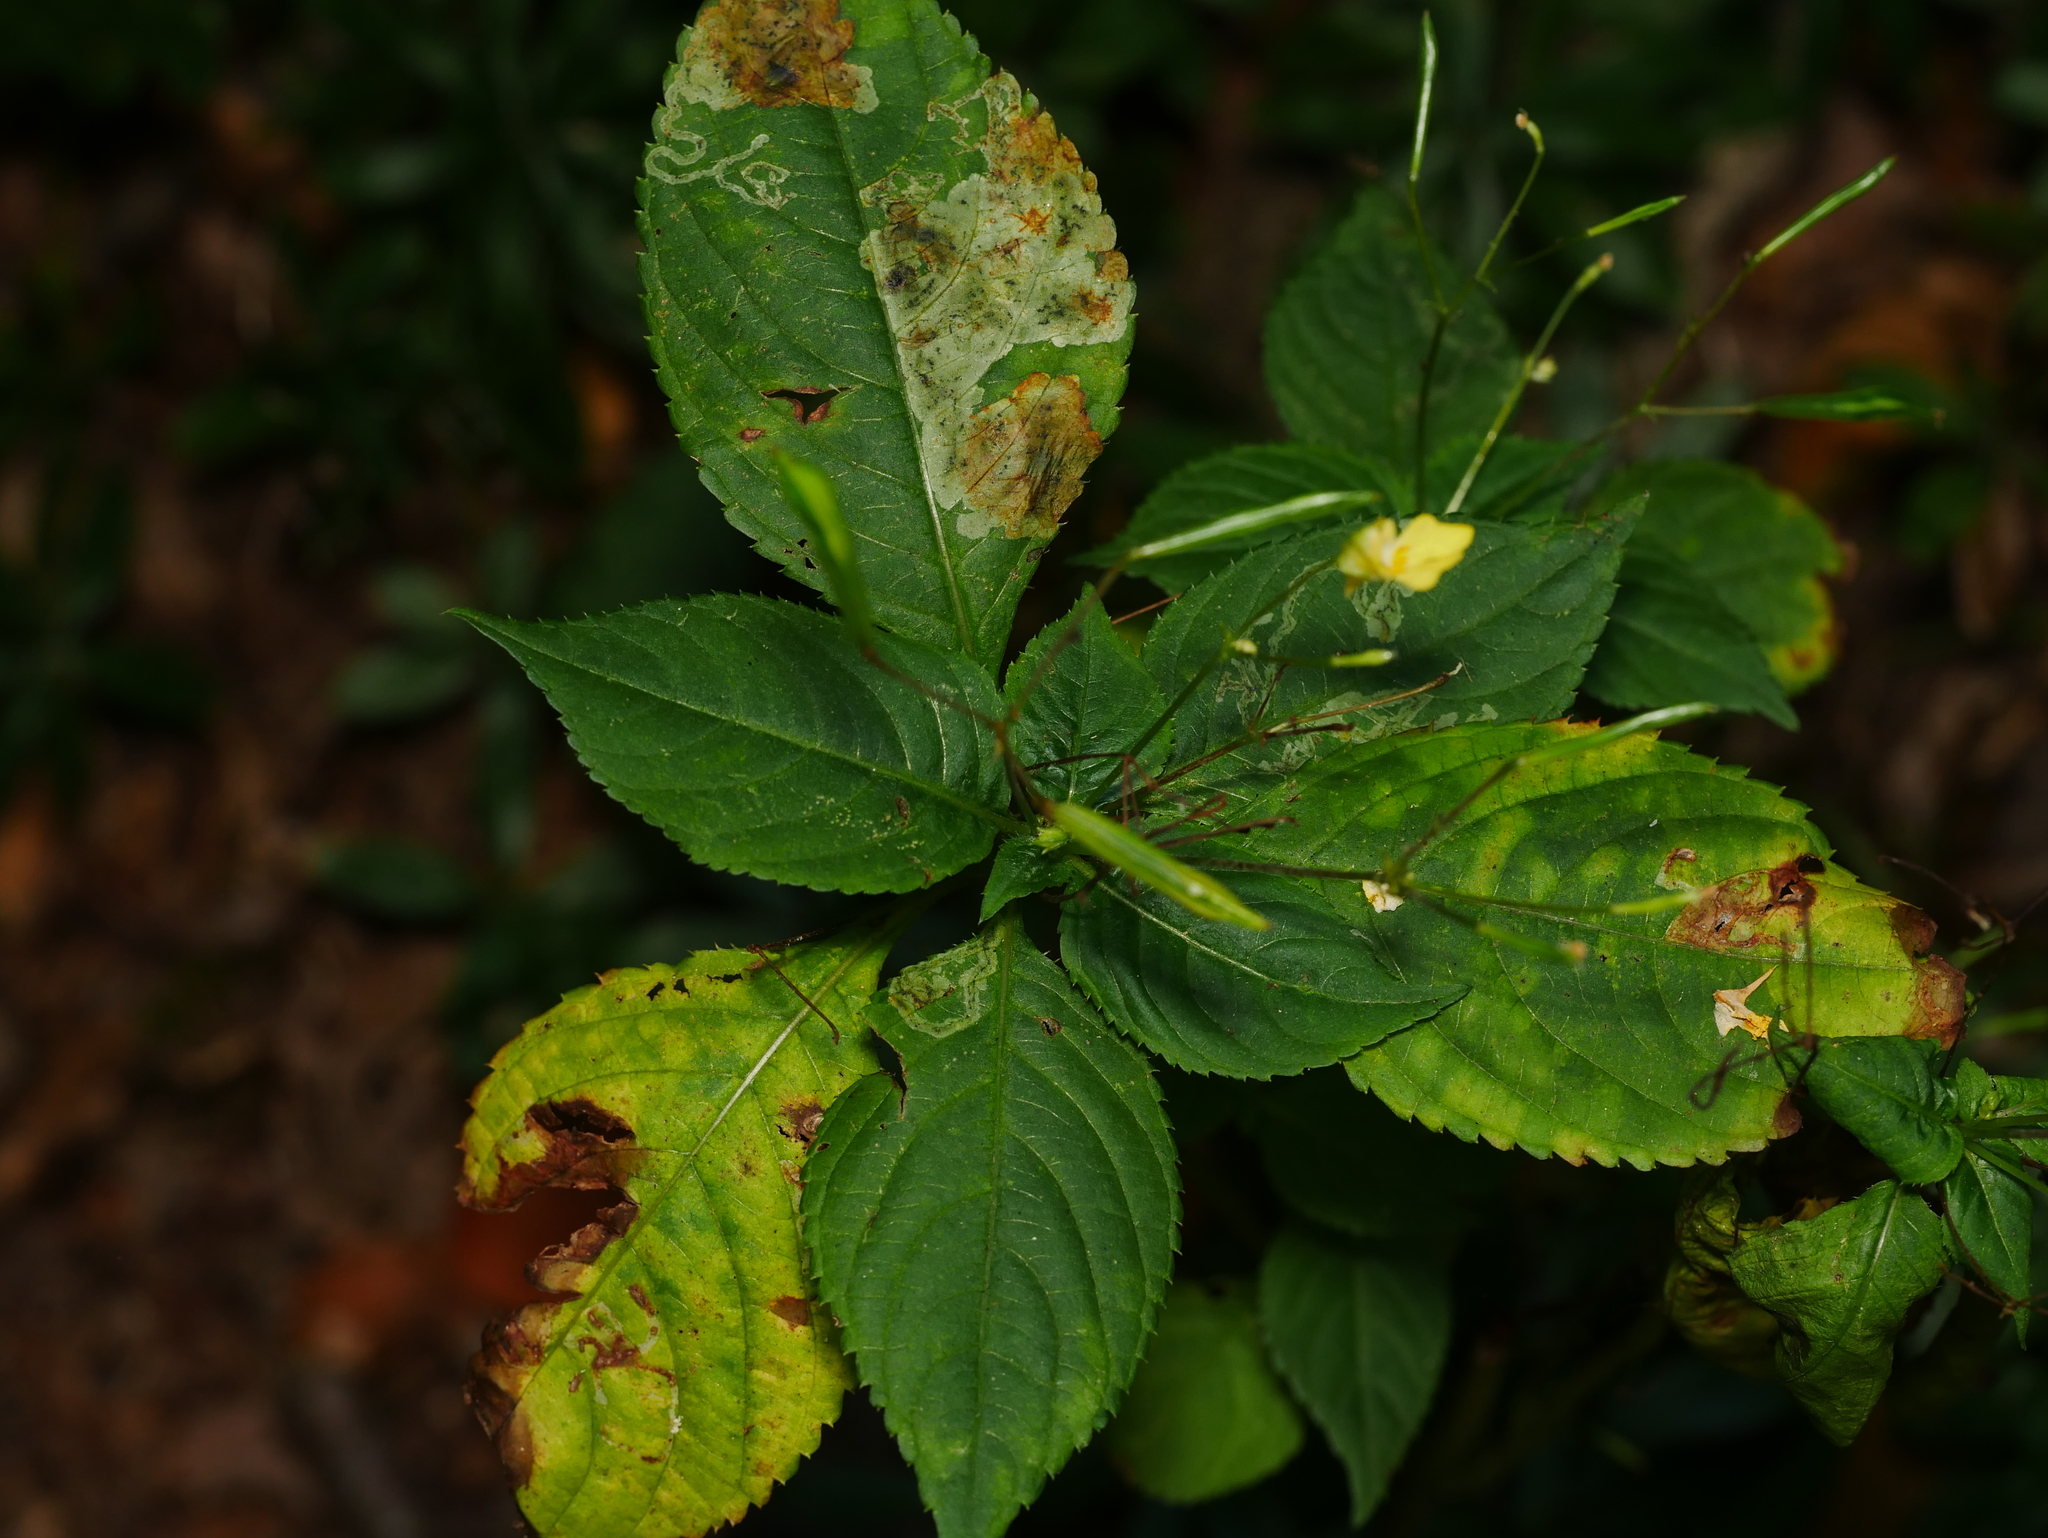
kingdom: Plantae
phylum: Tracheophyta
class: Magnoliopsida
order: Ericales
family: Balsaminaceae
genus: Impatiens
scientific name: Impatiens parviflora
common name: Small balsam
